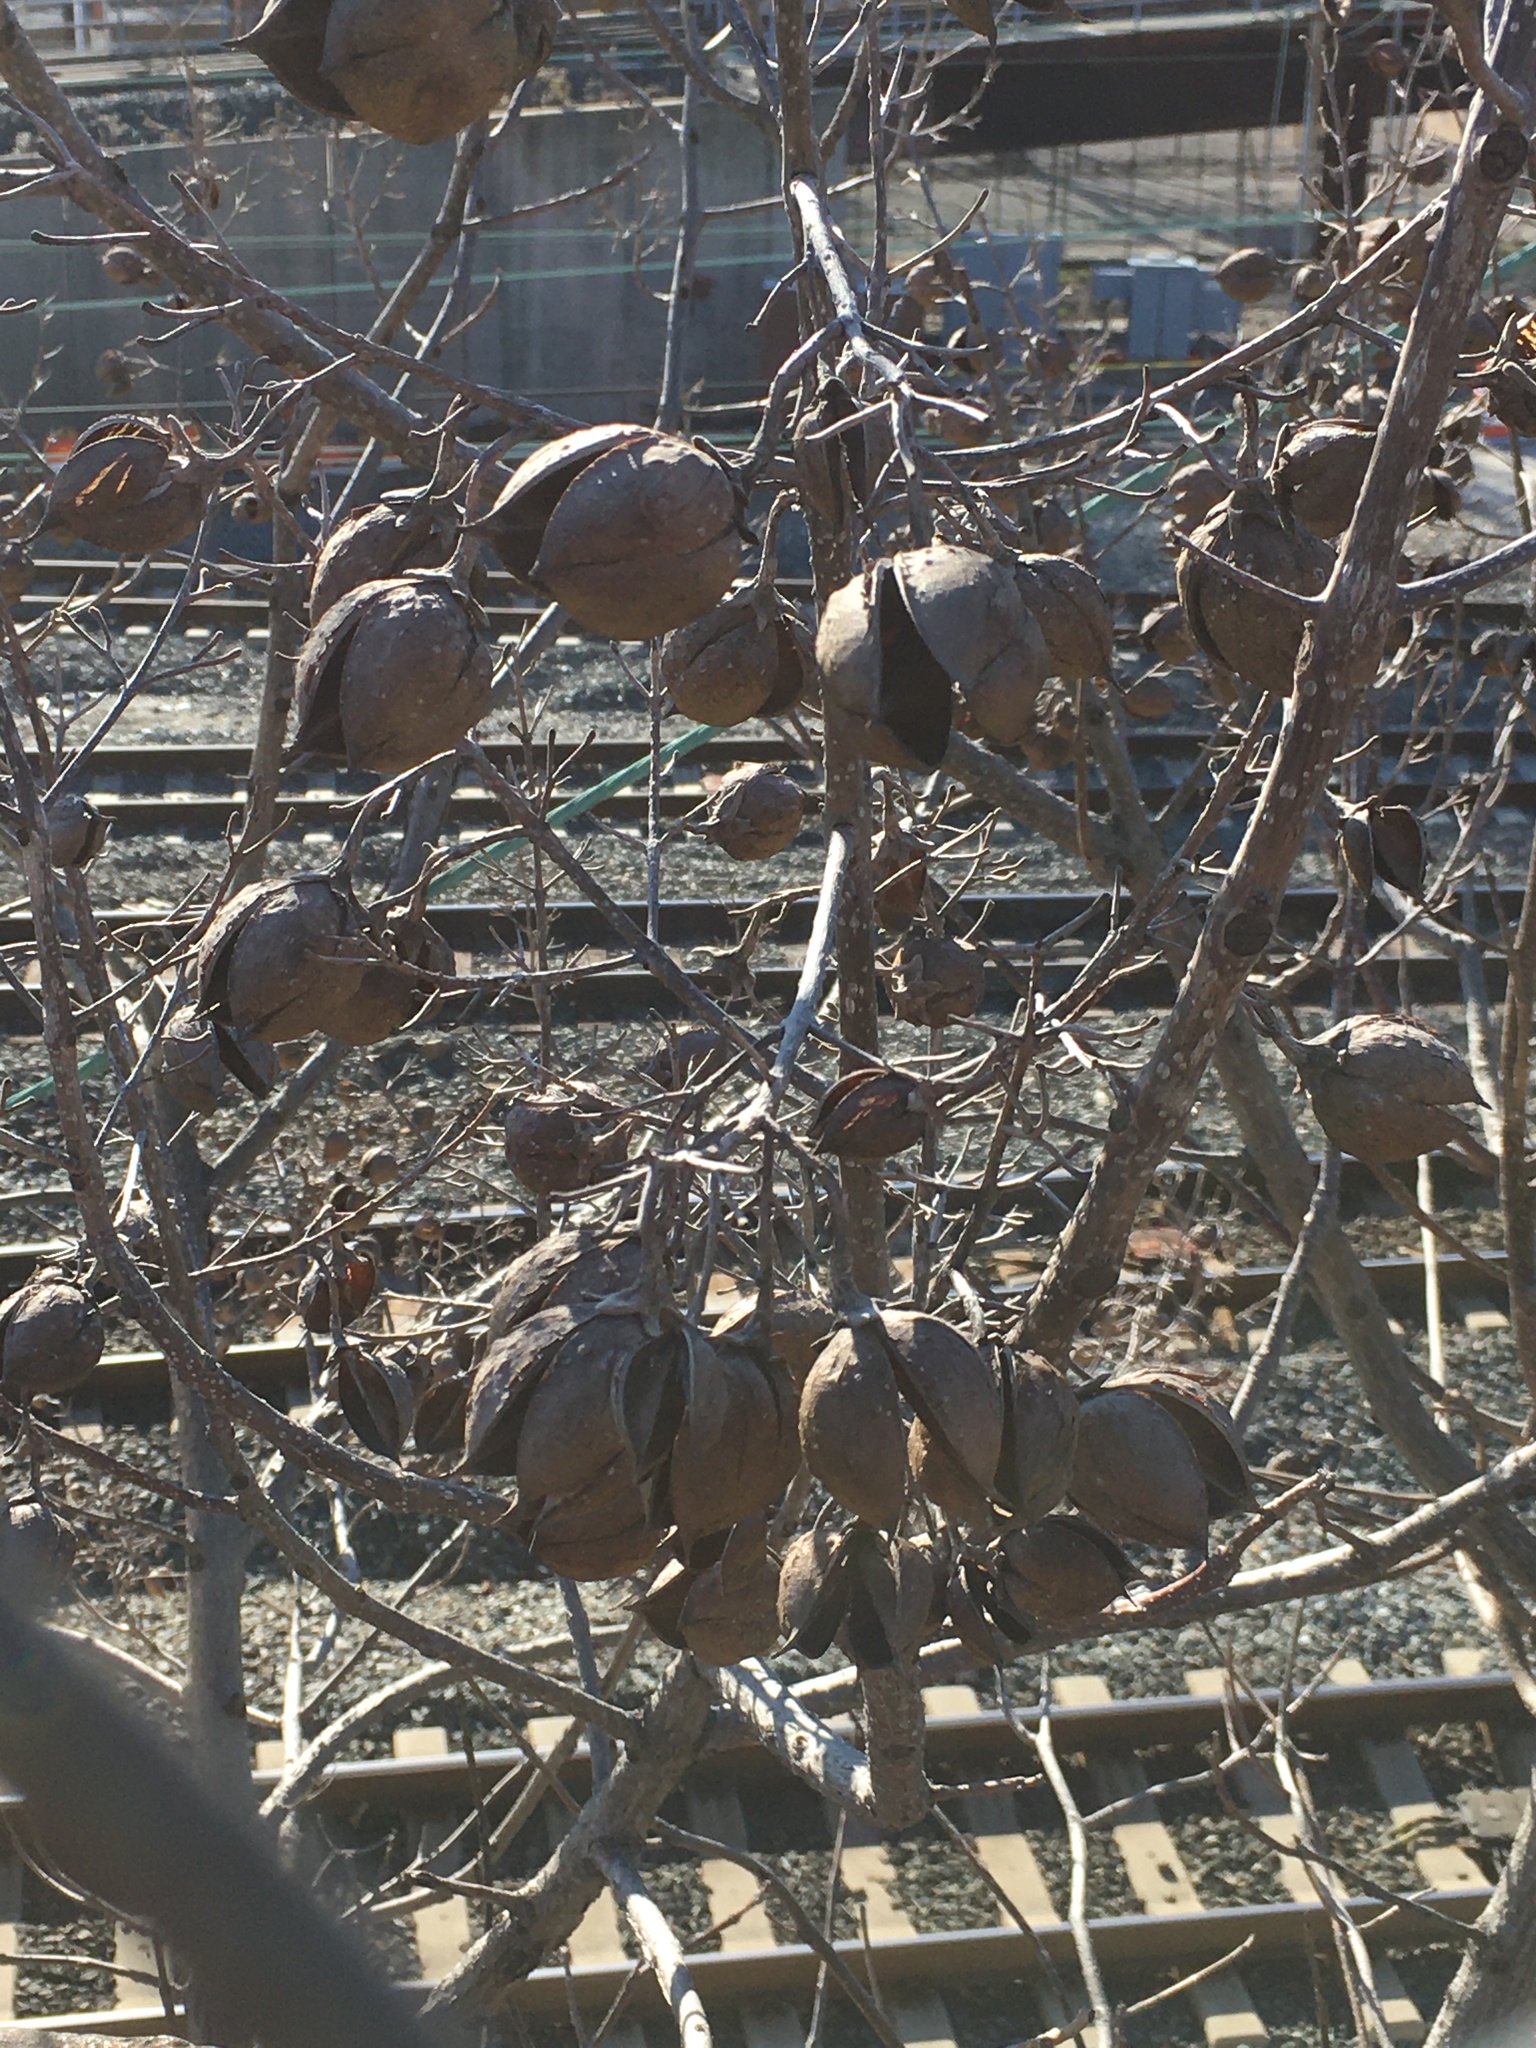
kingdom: Plantae
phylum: Tracheophyta
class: Magnoliopsida
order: Lamiales
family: Paulowniaceae
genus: Paulownia
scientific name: Paulownia tomentosa
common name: Foxglove-tree
